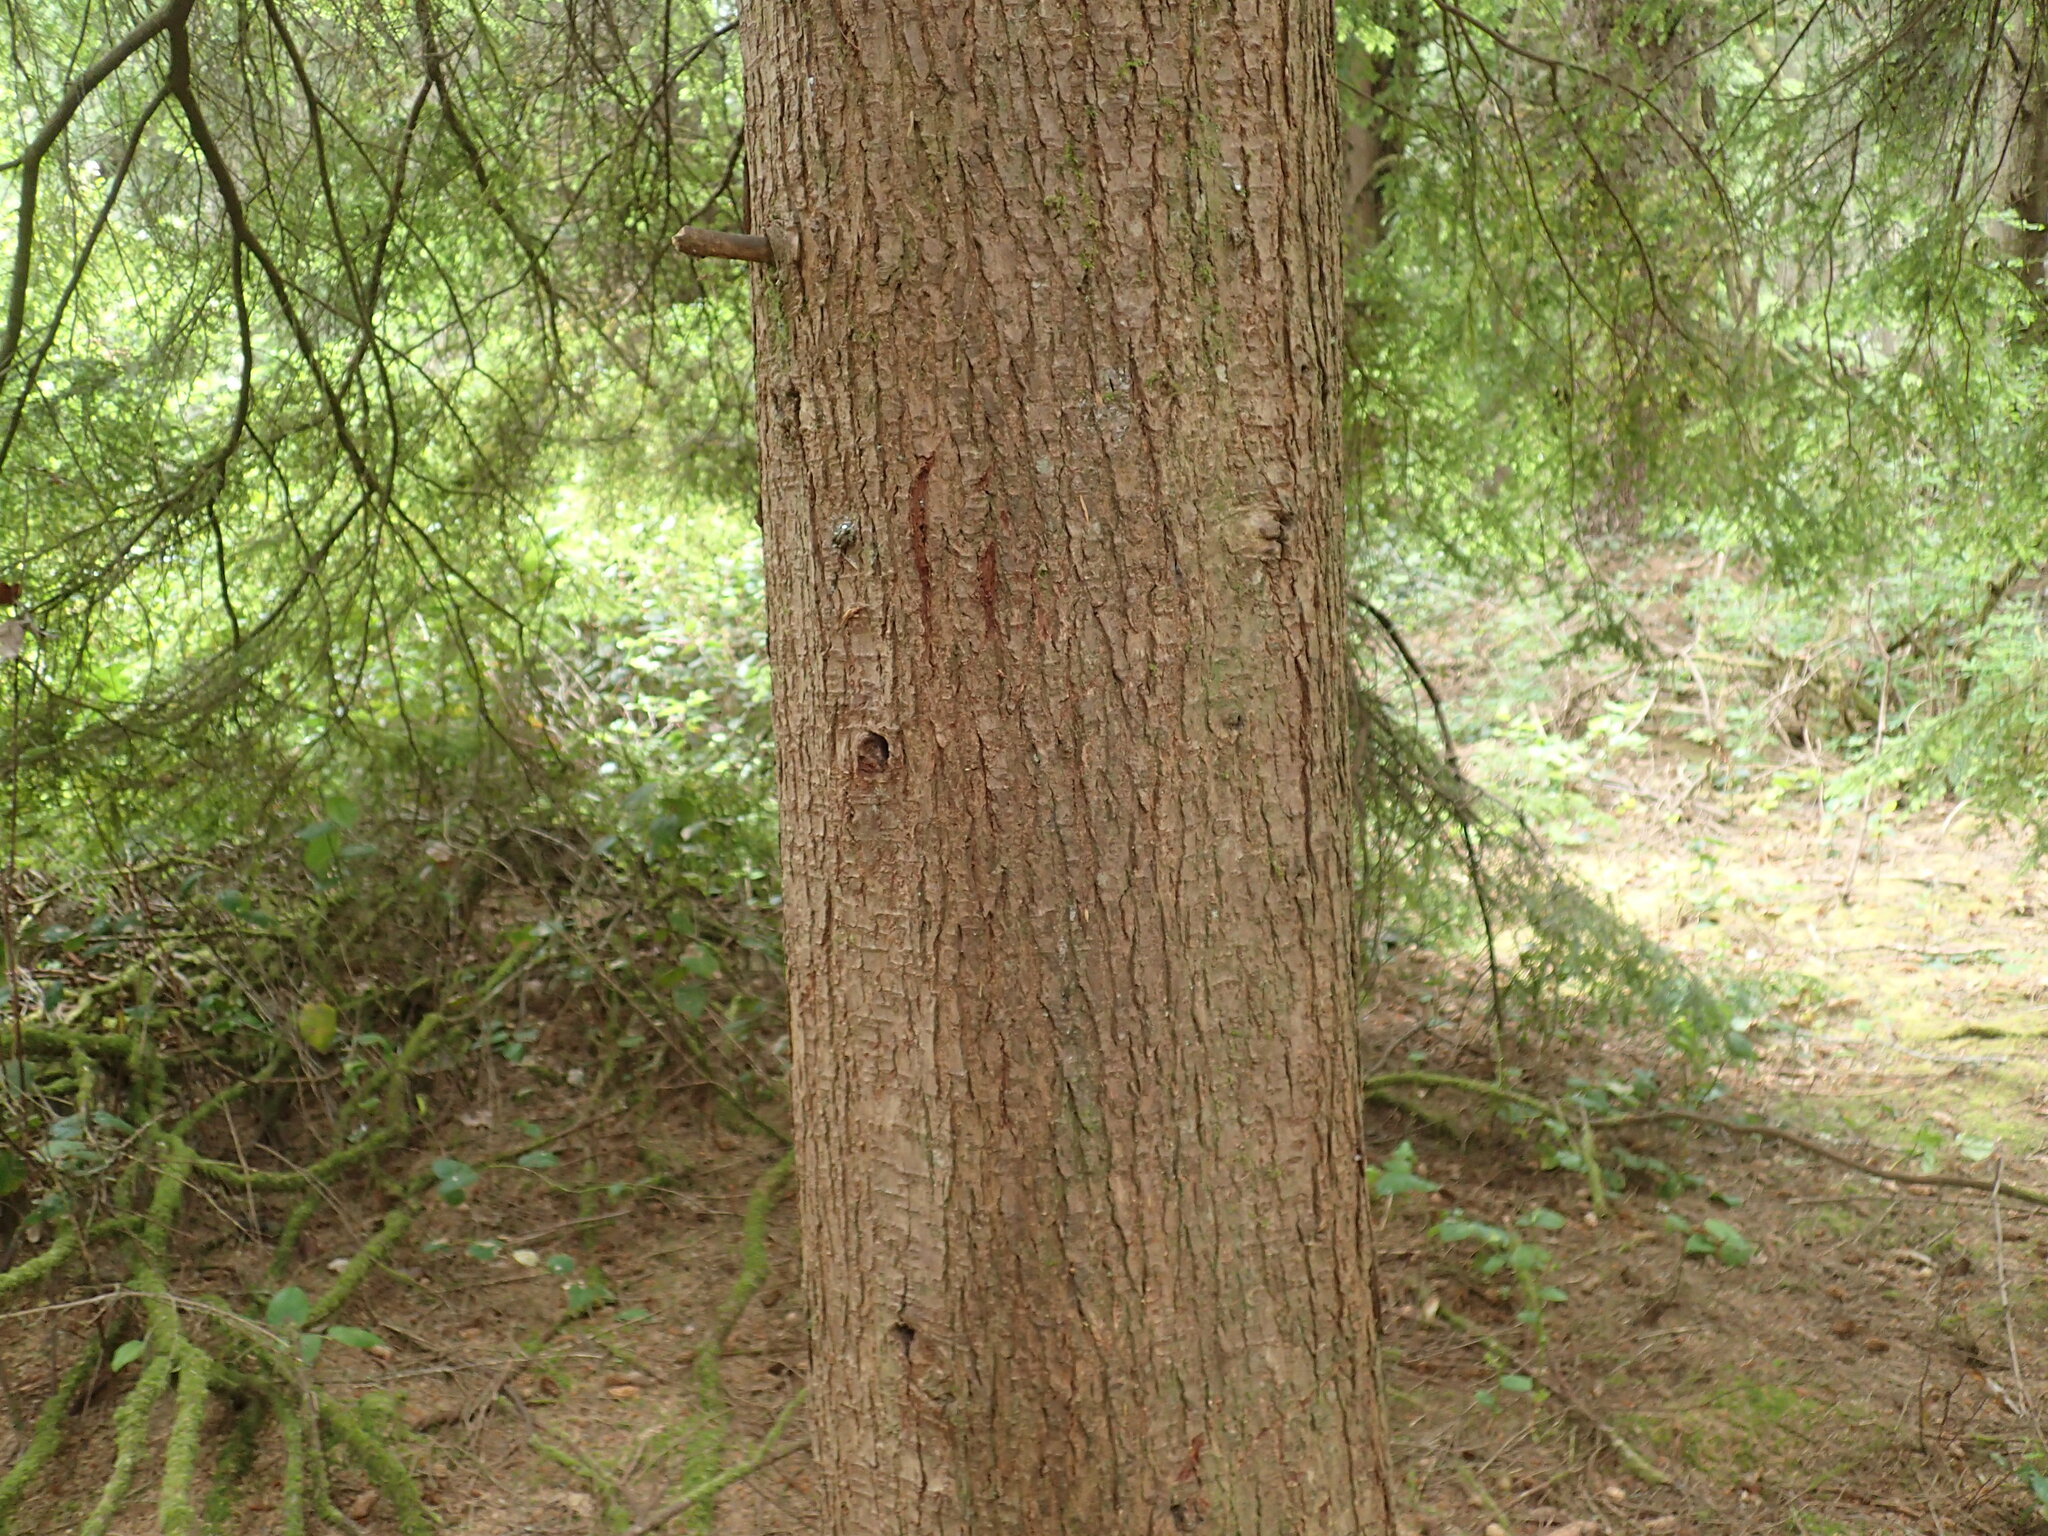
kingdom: Plantae
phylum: Tracheophyta
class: Pinopsida
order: Pinales
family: Pinaceae
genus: Tsuga
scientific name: Tsuga heterophylla
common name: Western hemlock
